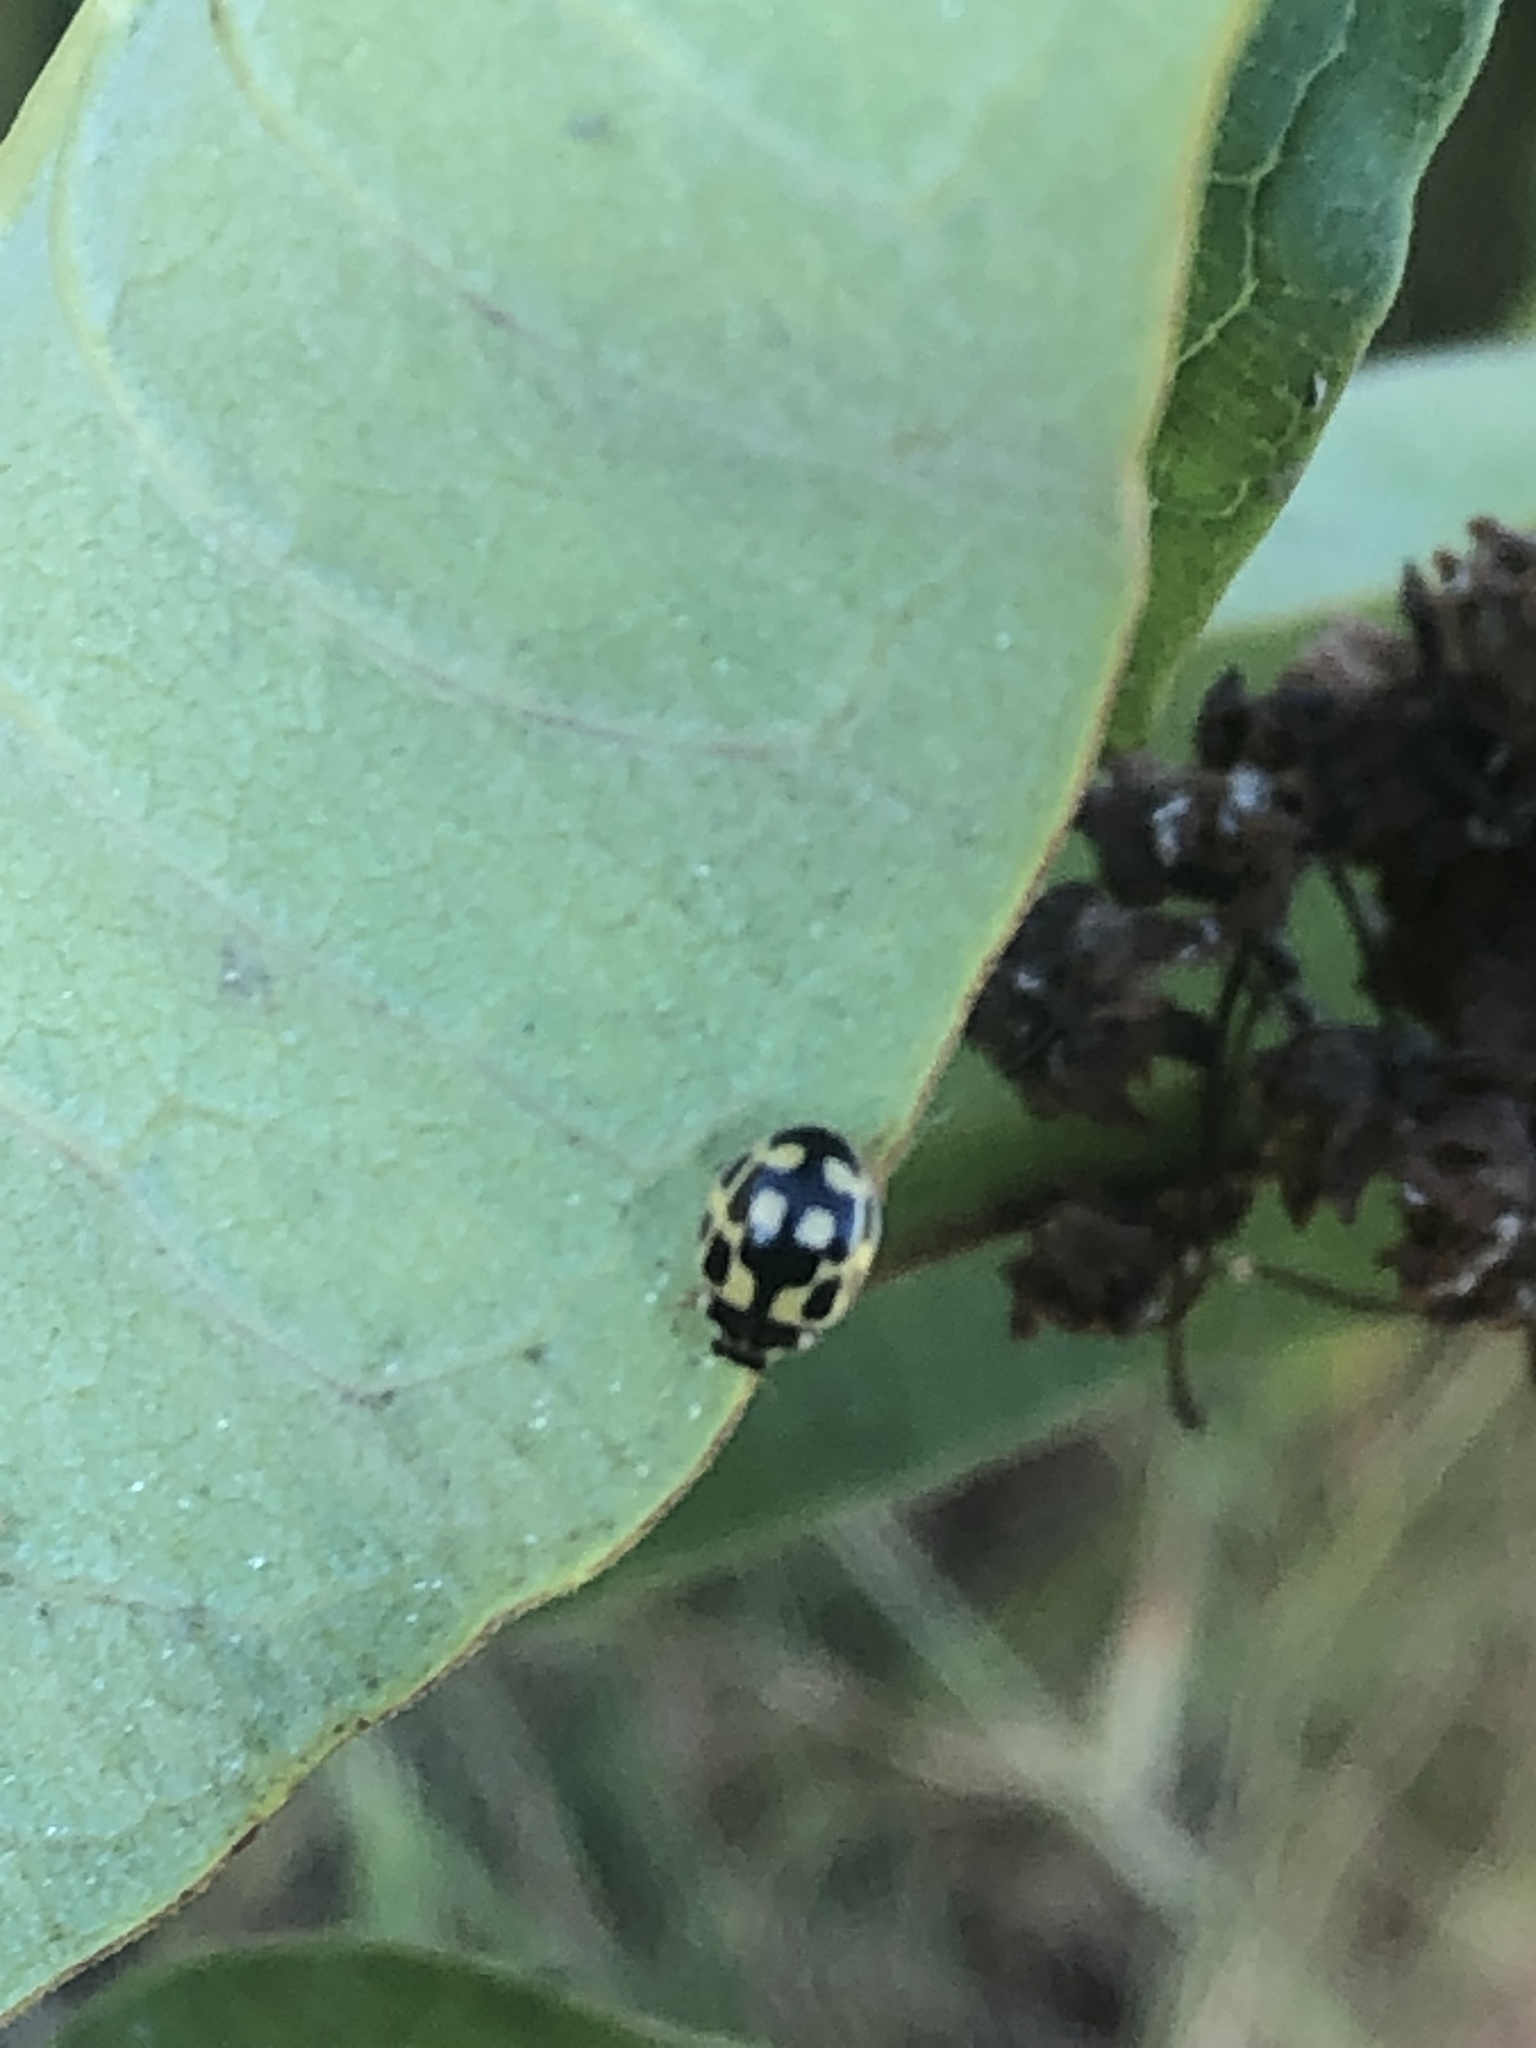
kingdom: Animalia
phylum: Arthropoda
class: Insecta
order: Coleoptera
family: Coccinellidae
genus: Propylaea
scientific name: Propylaea quatuordecimpunctata
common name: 14-spotted ladybird beetle
